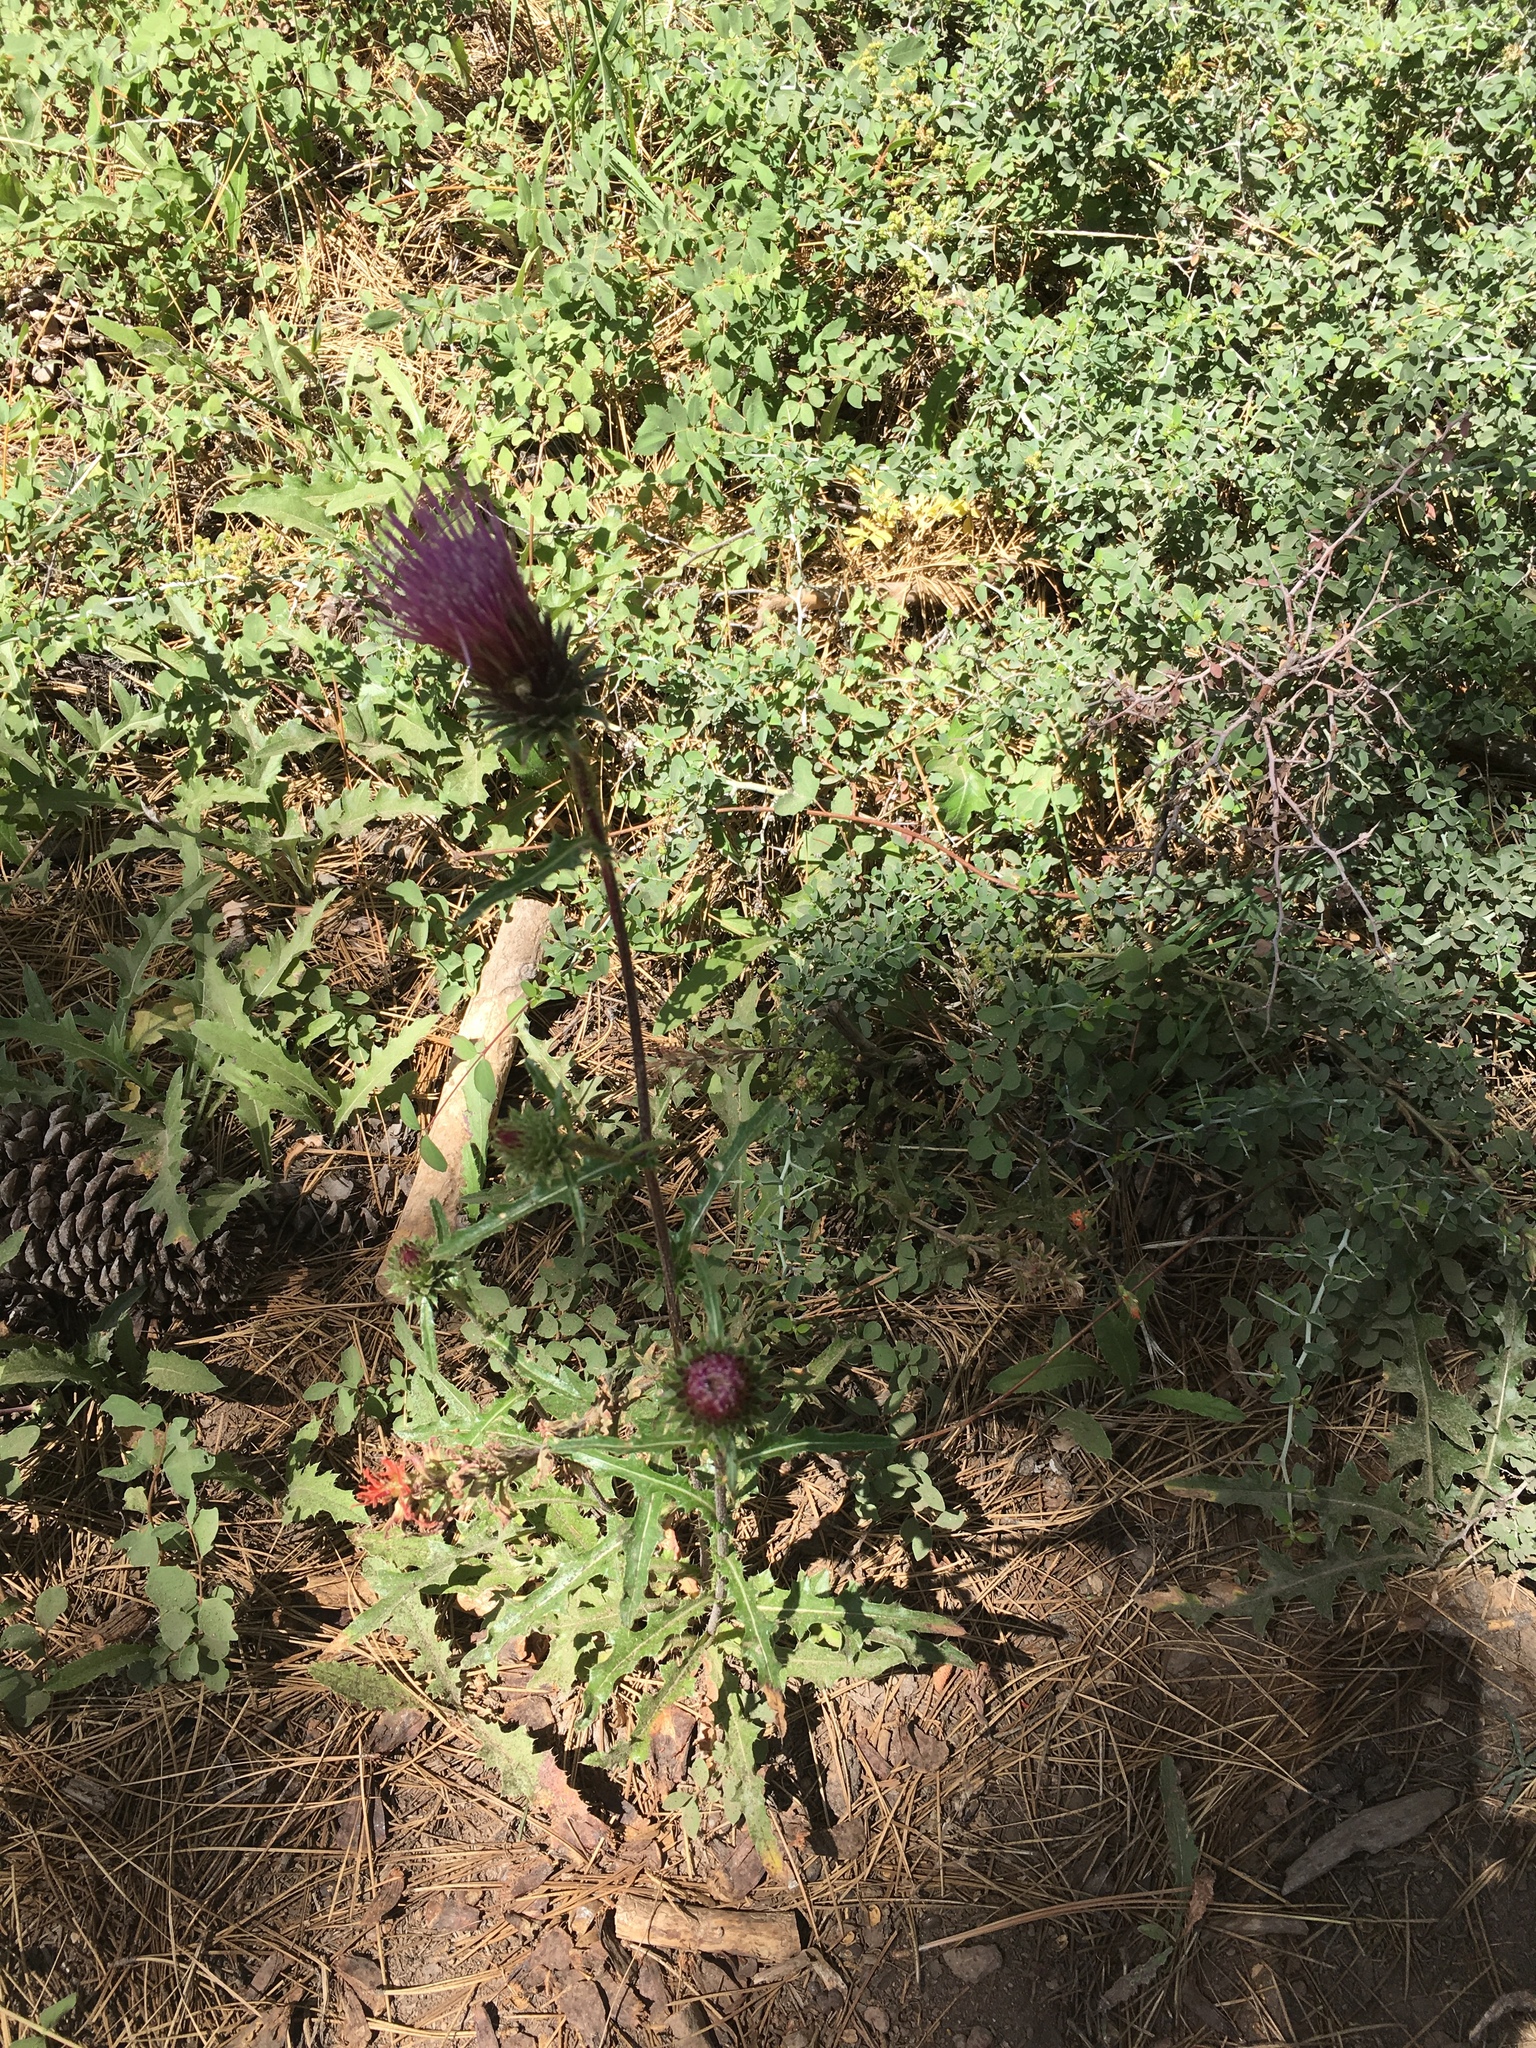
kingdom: Plantae
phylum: Tracheophyta
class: Magnoliopsida
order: Asterales
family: Asteraceae
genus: Cirsium
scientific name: Cirsium andersonii
